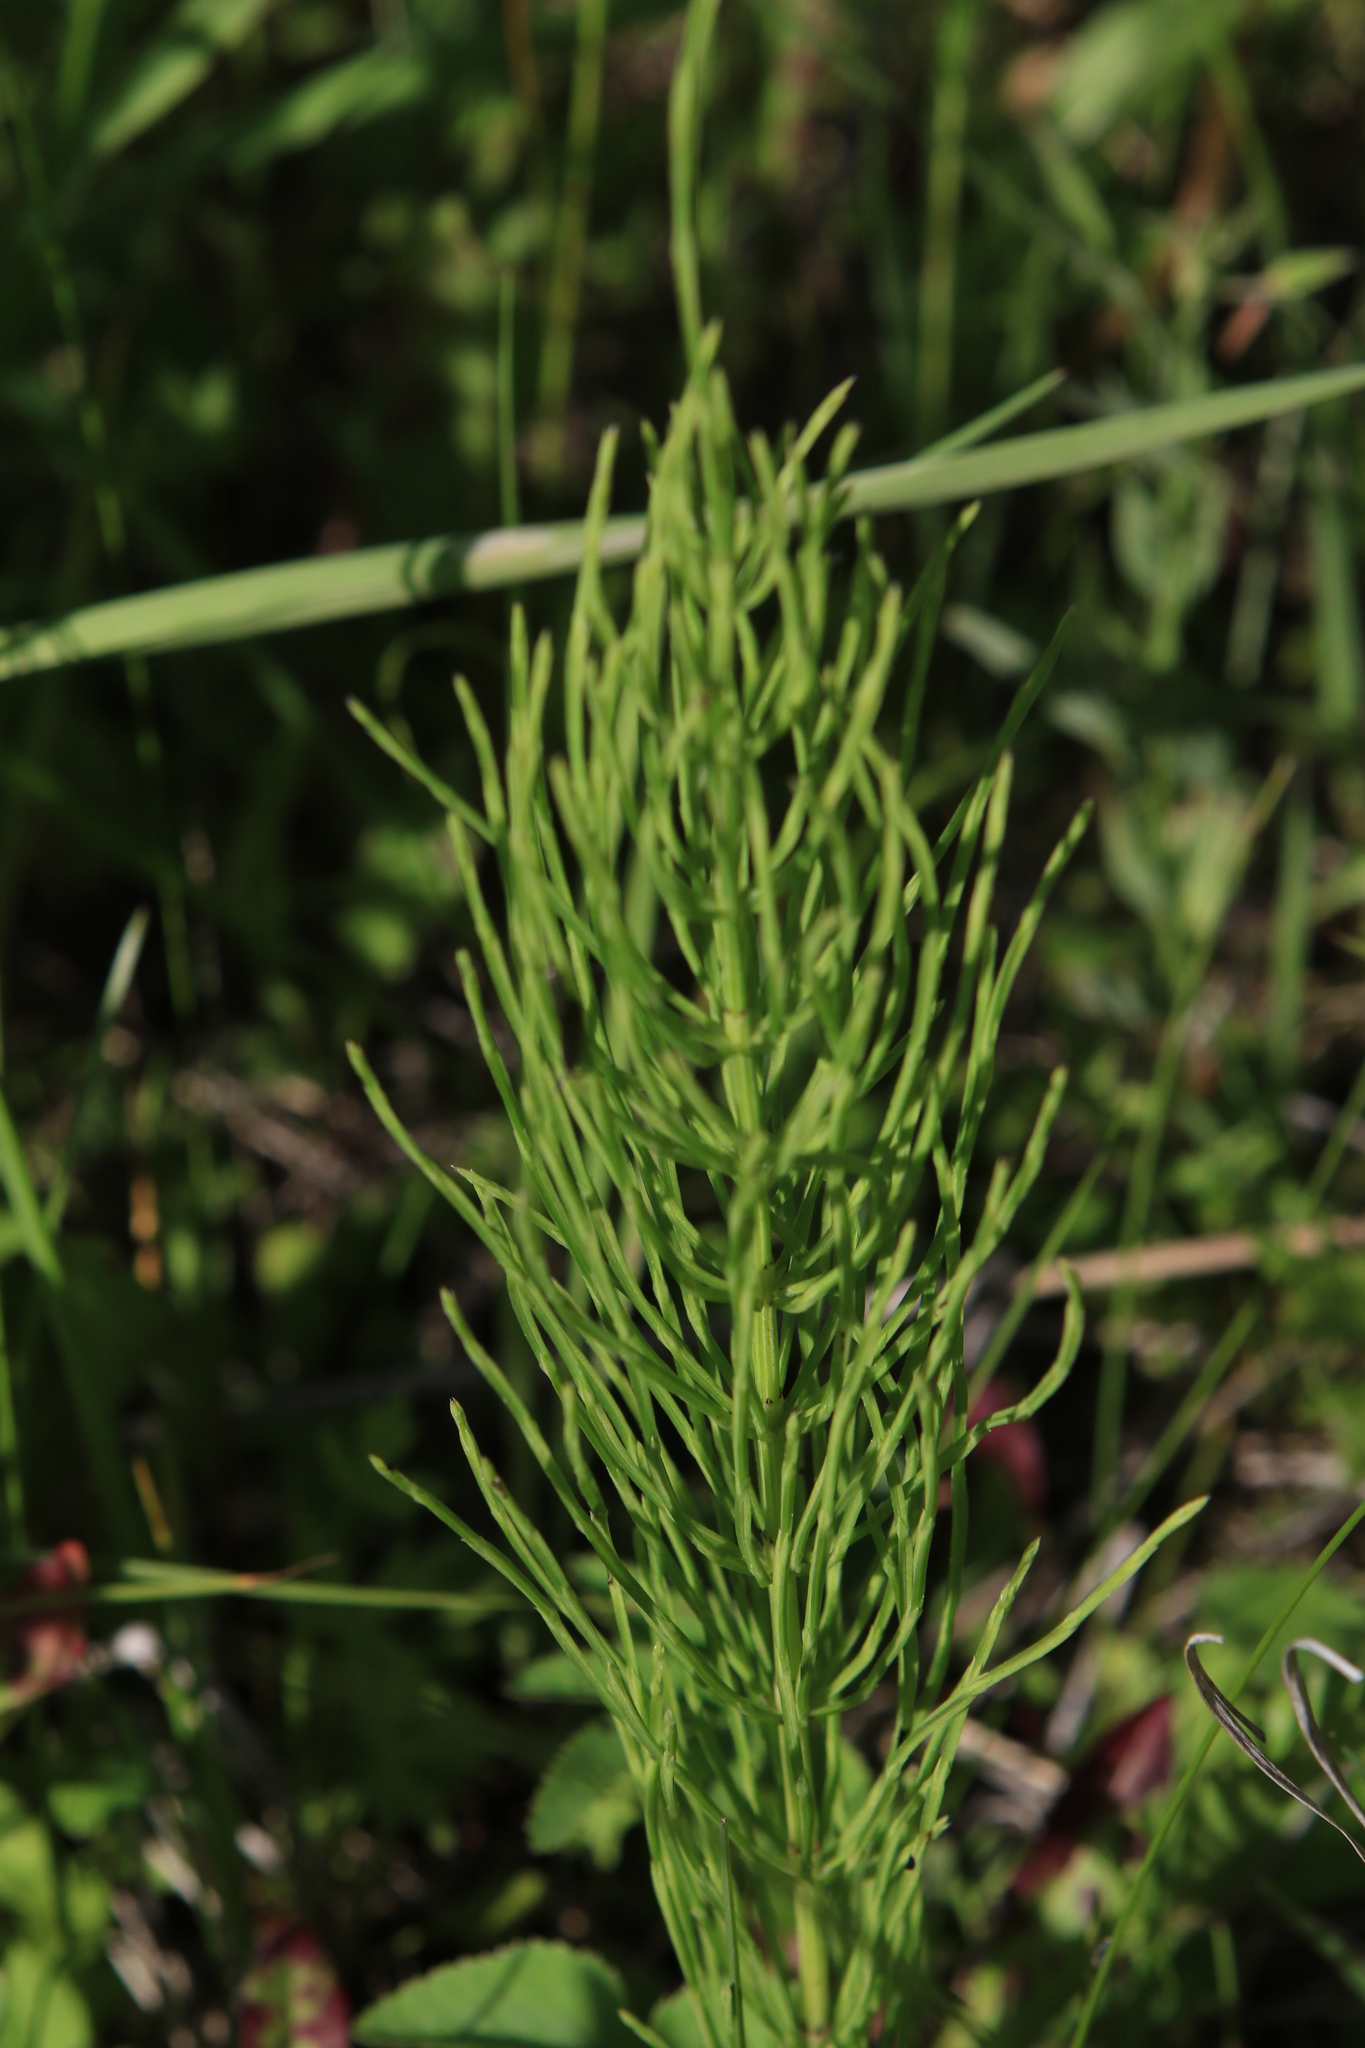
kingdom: Plantae
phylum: Tracheophyta
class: Polypodiopsida
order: Equisetales
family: Equisetaceae
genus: Equisetum
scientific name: Equisetum arvense
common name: Field horsetail
